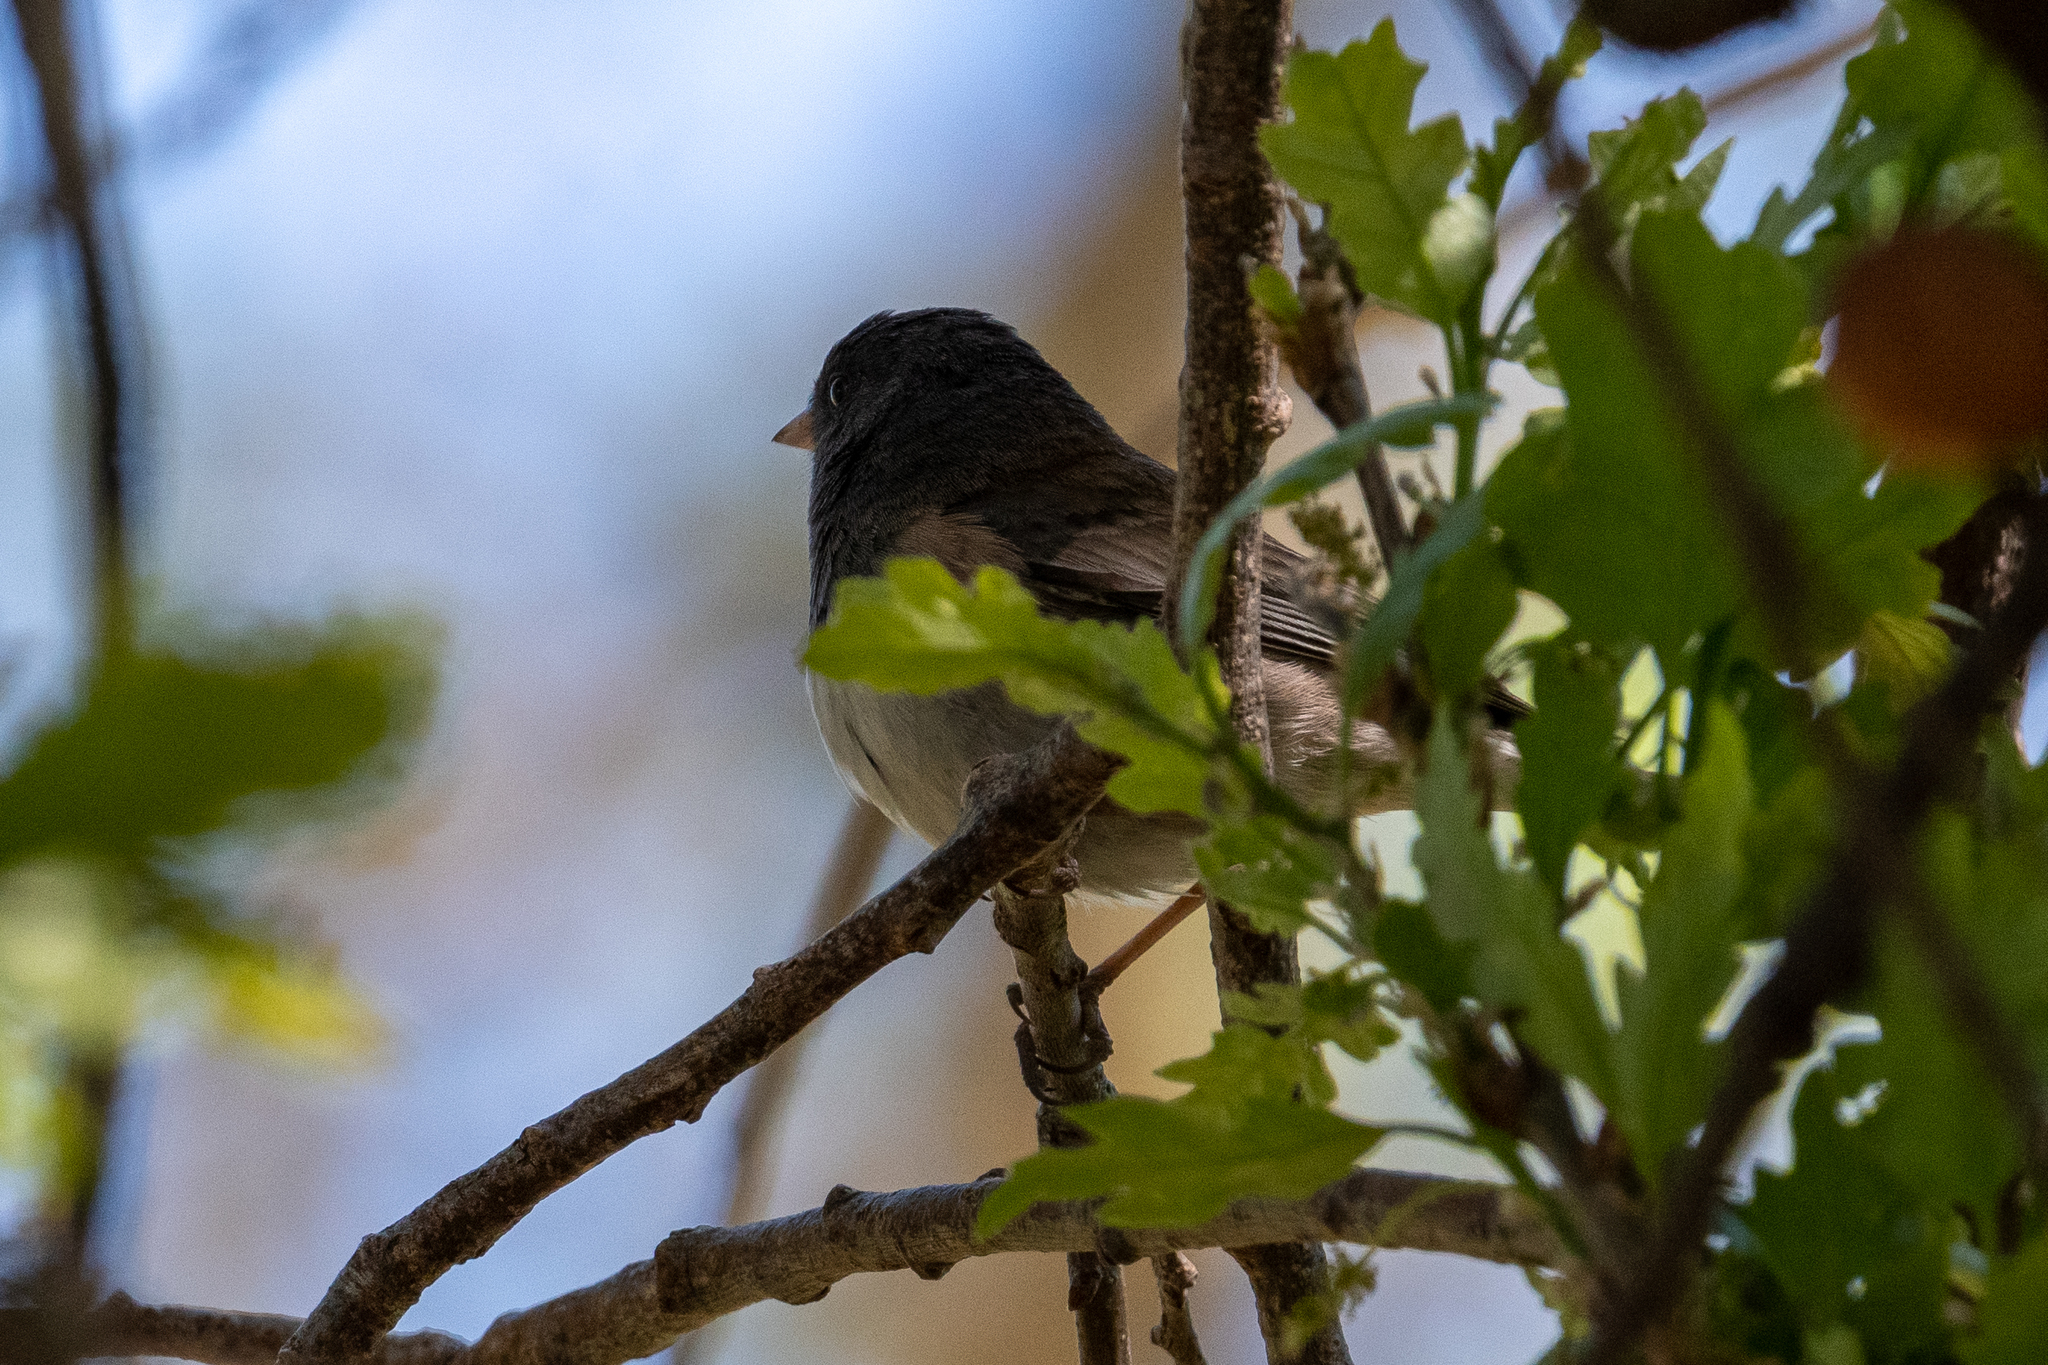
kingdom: Animalia
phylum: Chordata
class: Aves
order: Passeriformes
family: Passerellidae
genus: Junco
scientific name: Junco hyemalis
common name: Dark-eyed junco
